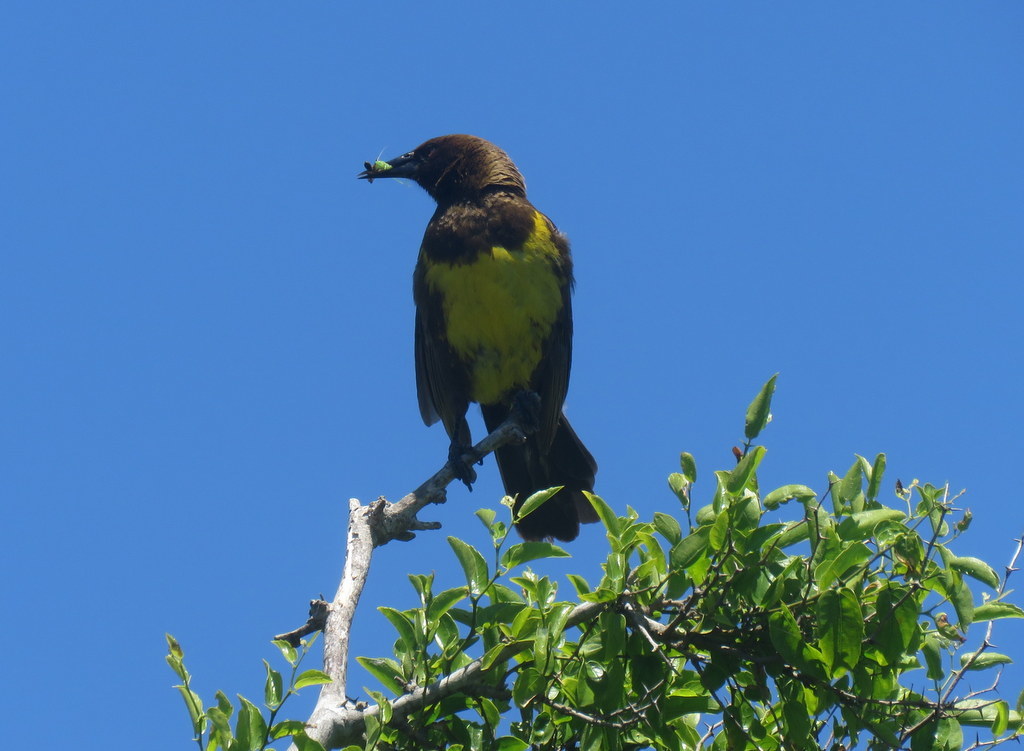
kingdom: Animalia
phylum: Chordata
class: Aves
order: Passeriformes
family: Icteridae
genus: Pseudoleistes
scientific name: Pseudoleistes virescens
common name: Brown-and-yellow marshbird
